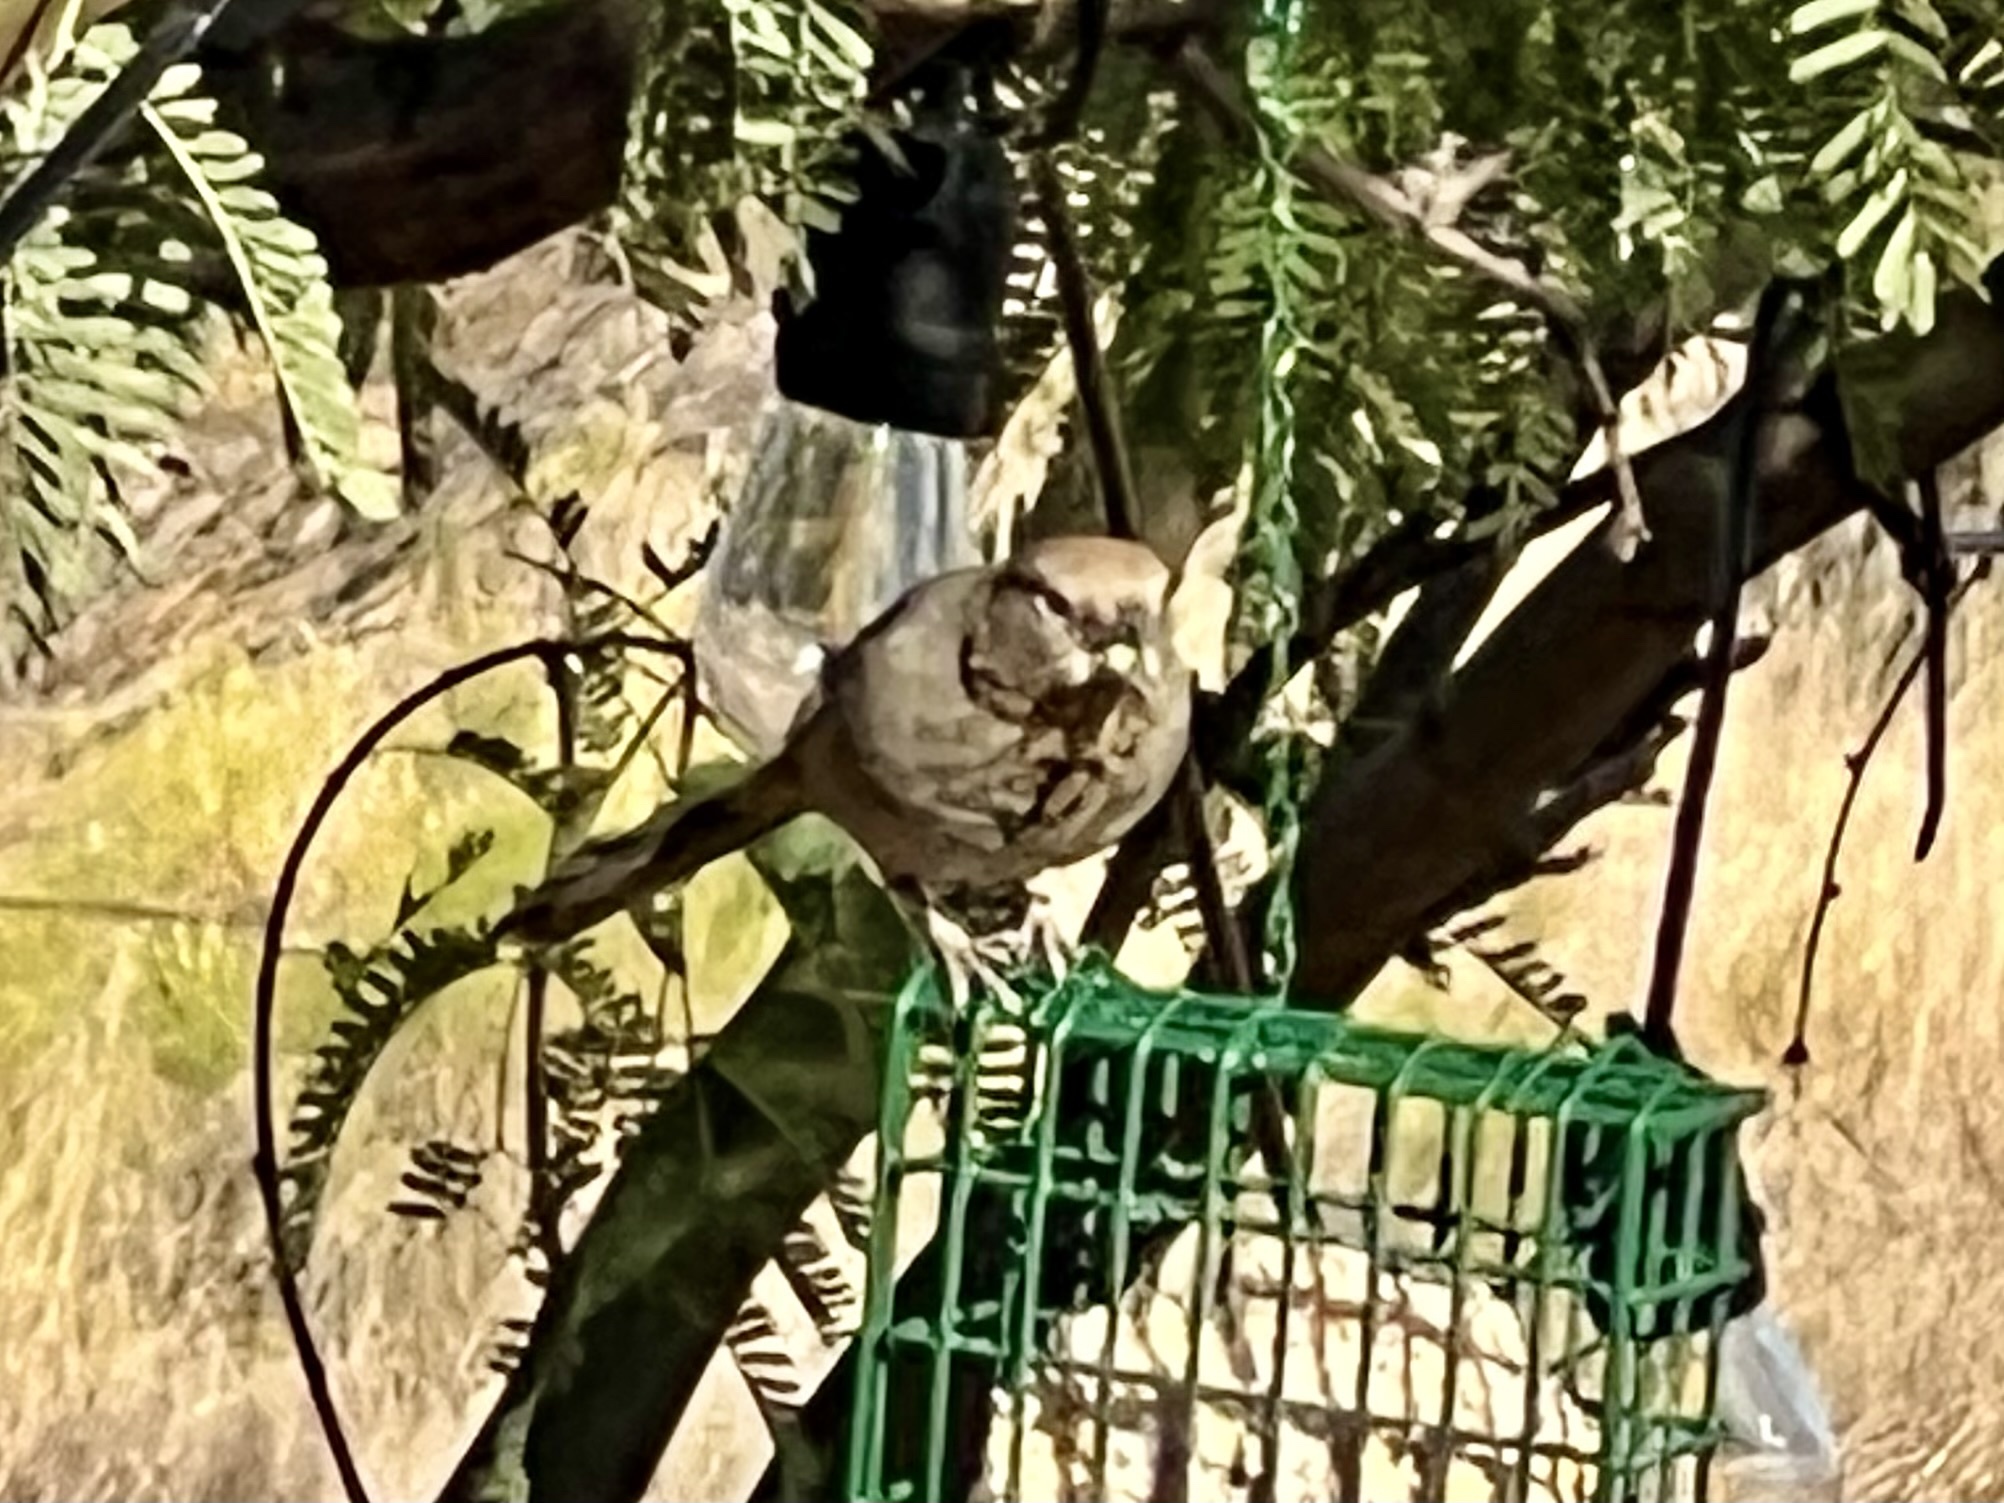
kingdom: Animalia
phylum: Chordata
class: Aves
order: Passeriformes
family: Passerellidae
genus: Melozone
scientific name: Melozone fusca
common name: Canyon towhee
